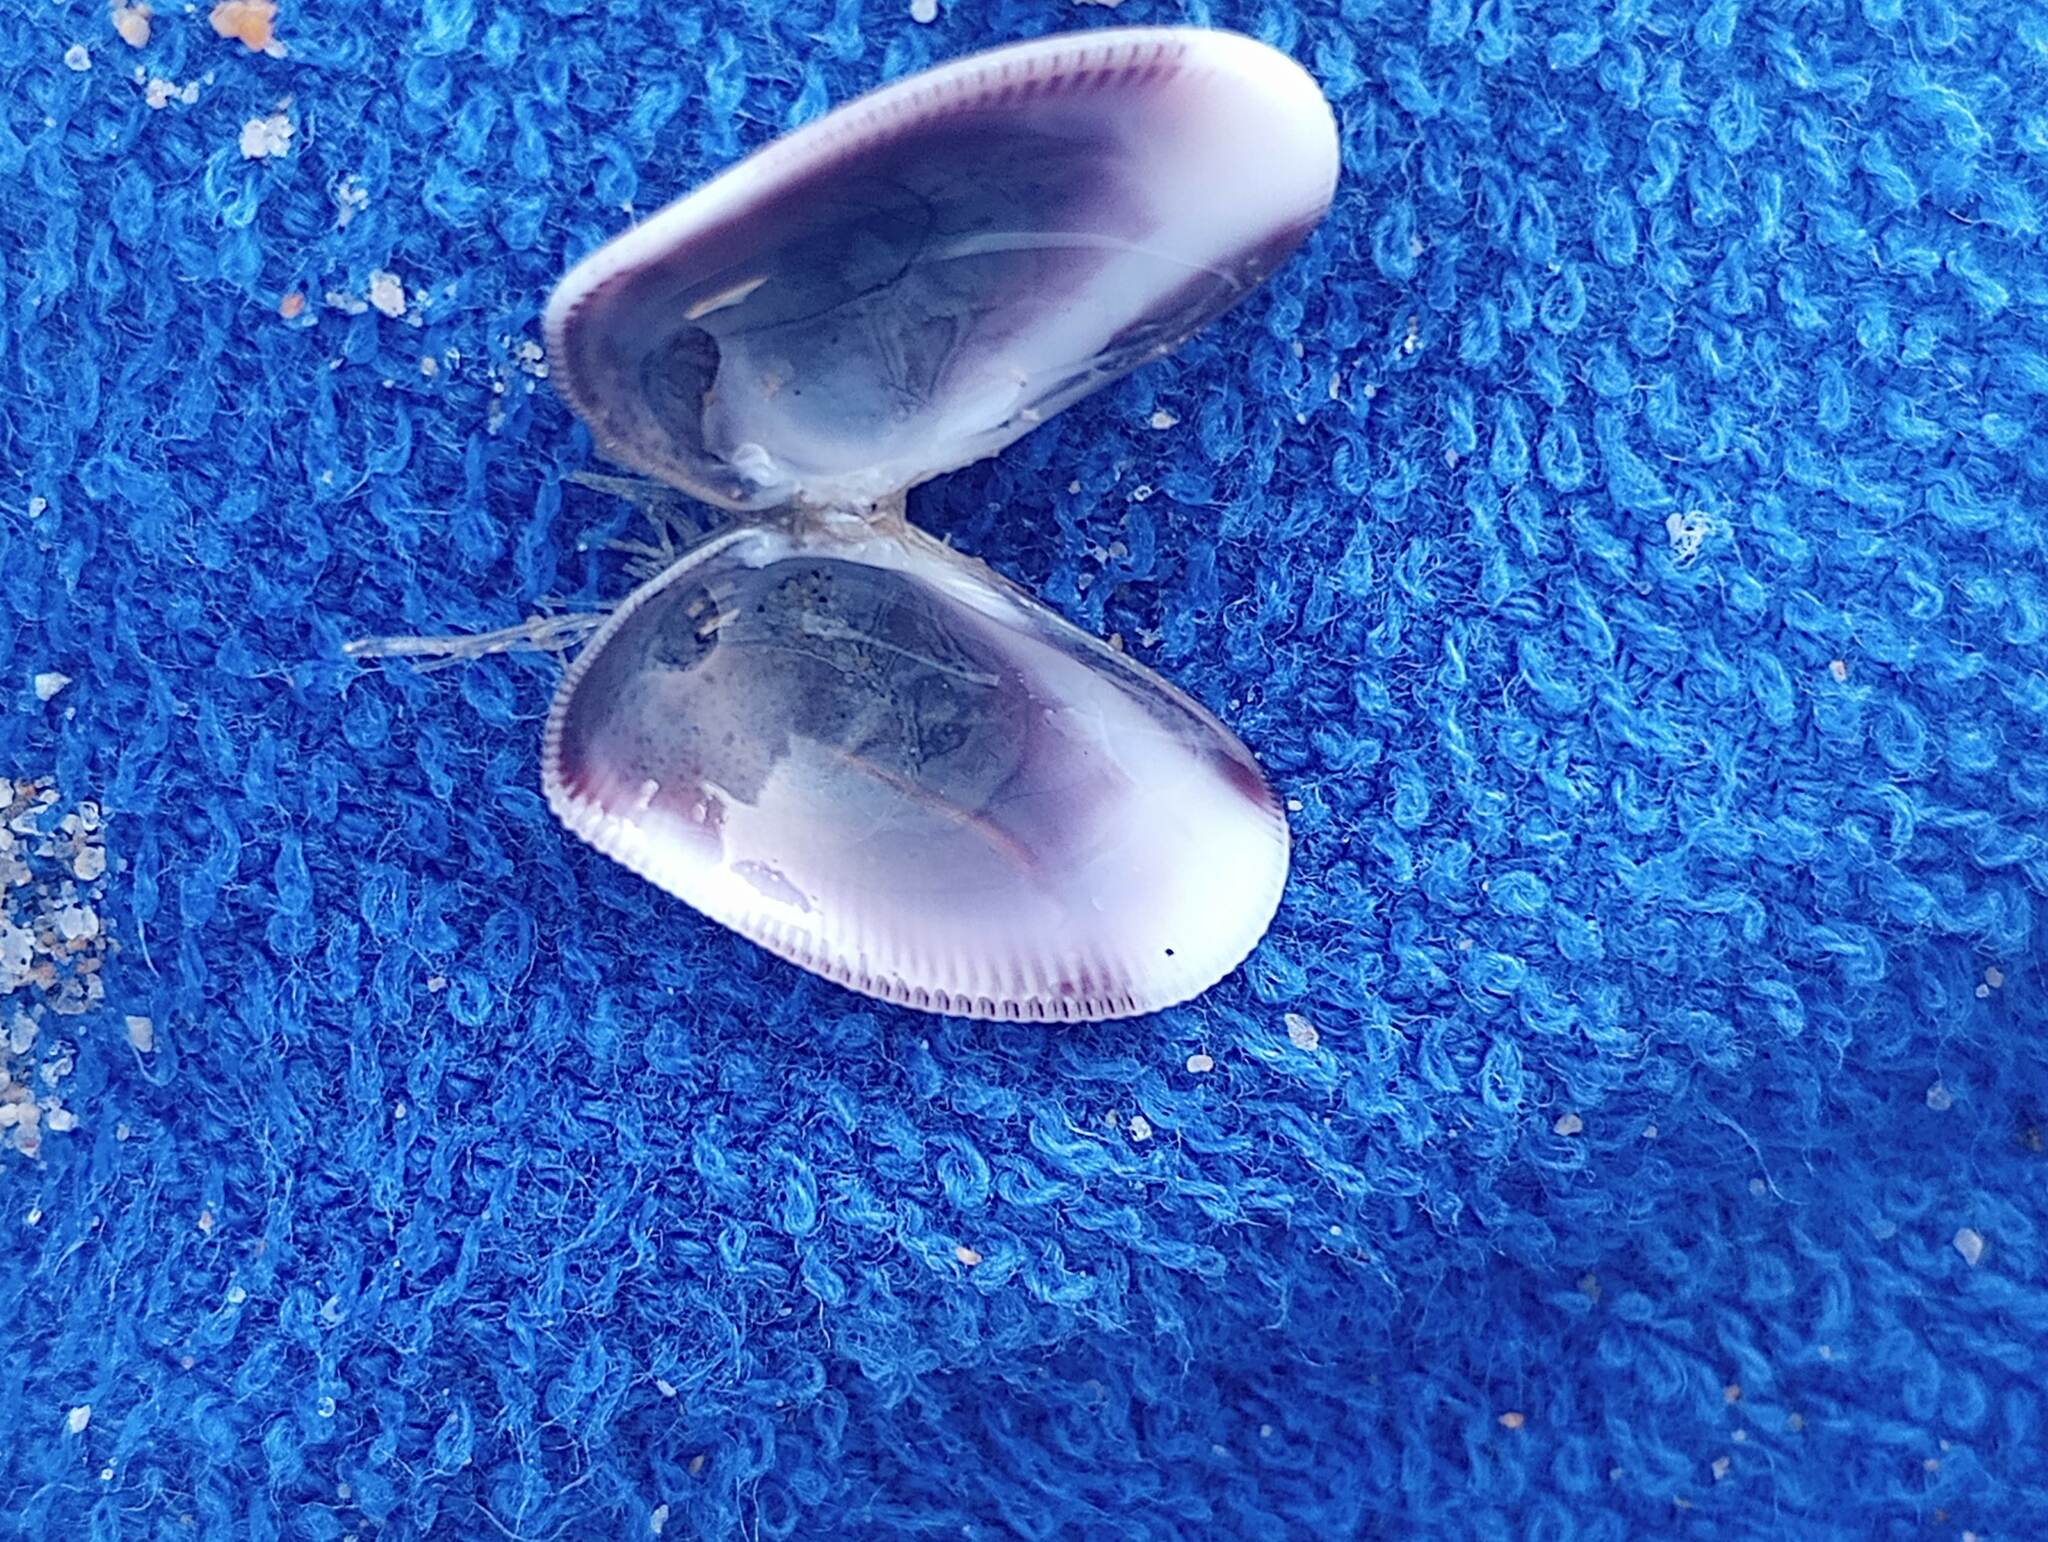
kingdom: Animalia
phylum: Mollusca
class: Bivalvia
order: Cardiida
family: Donacidae
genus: Donax
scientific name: Donax gouldii
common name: Gould beanclam
